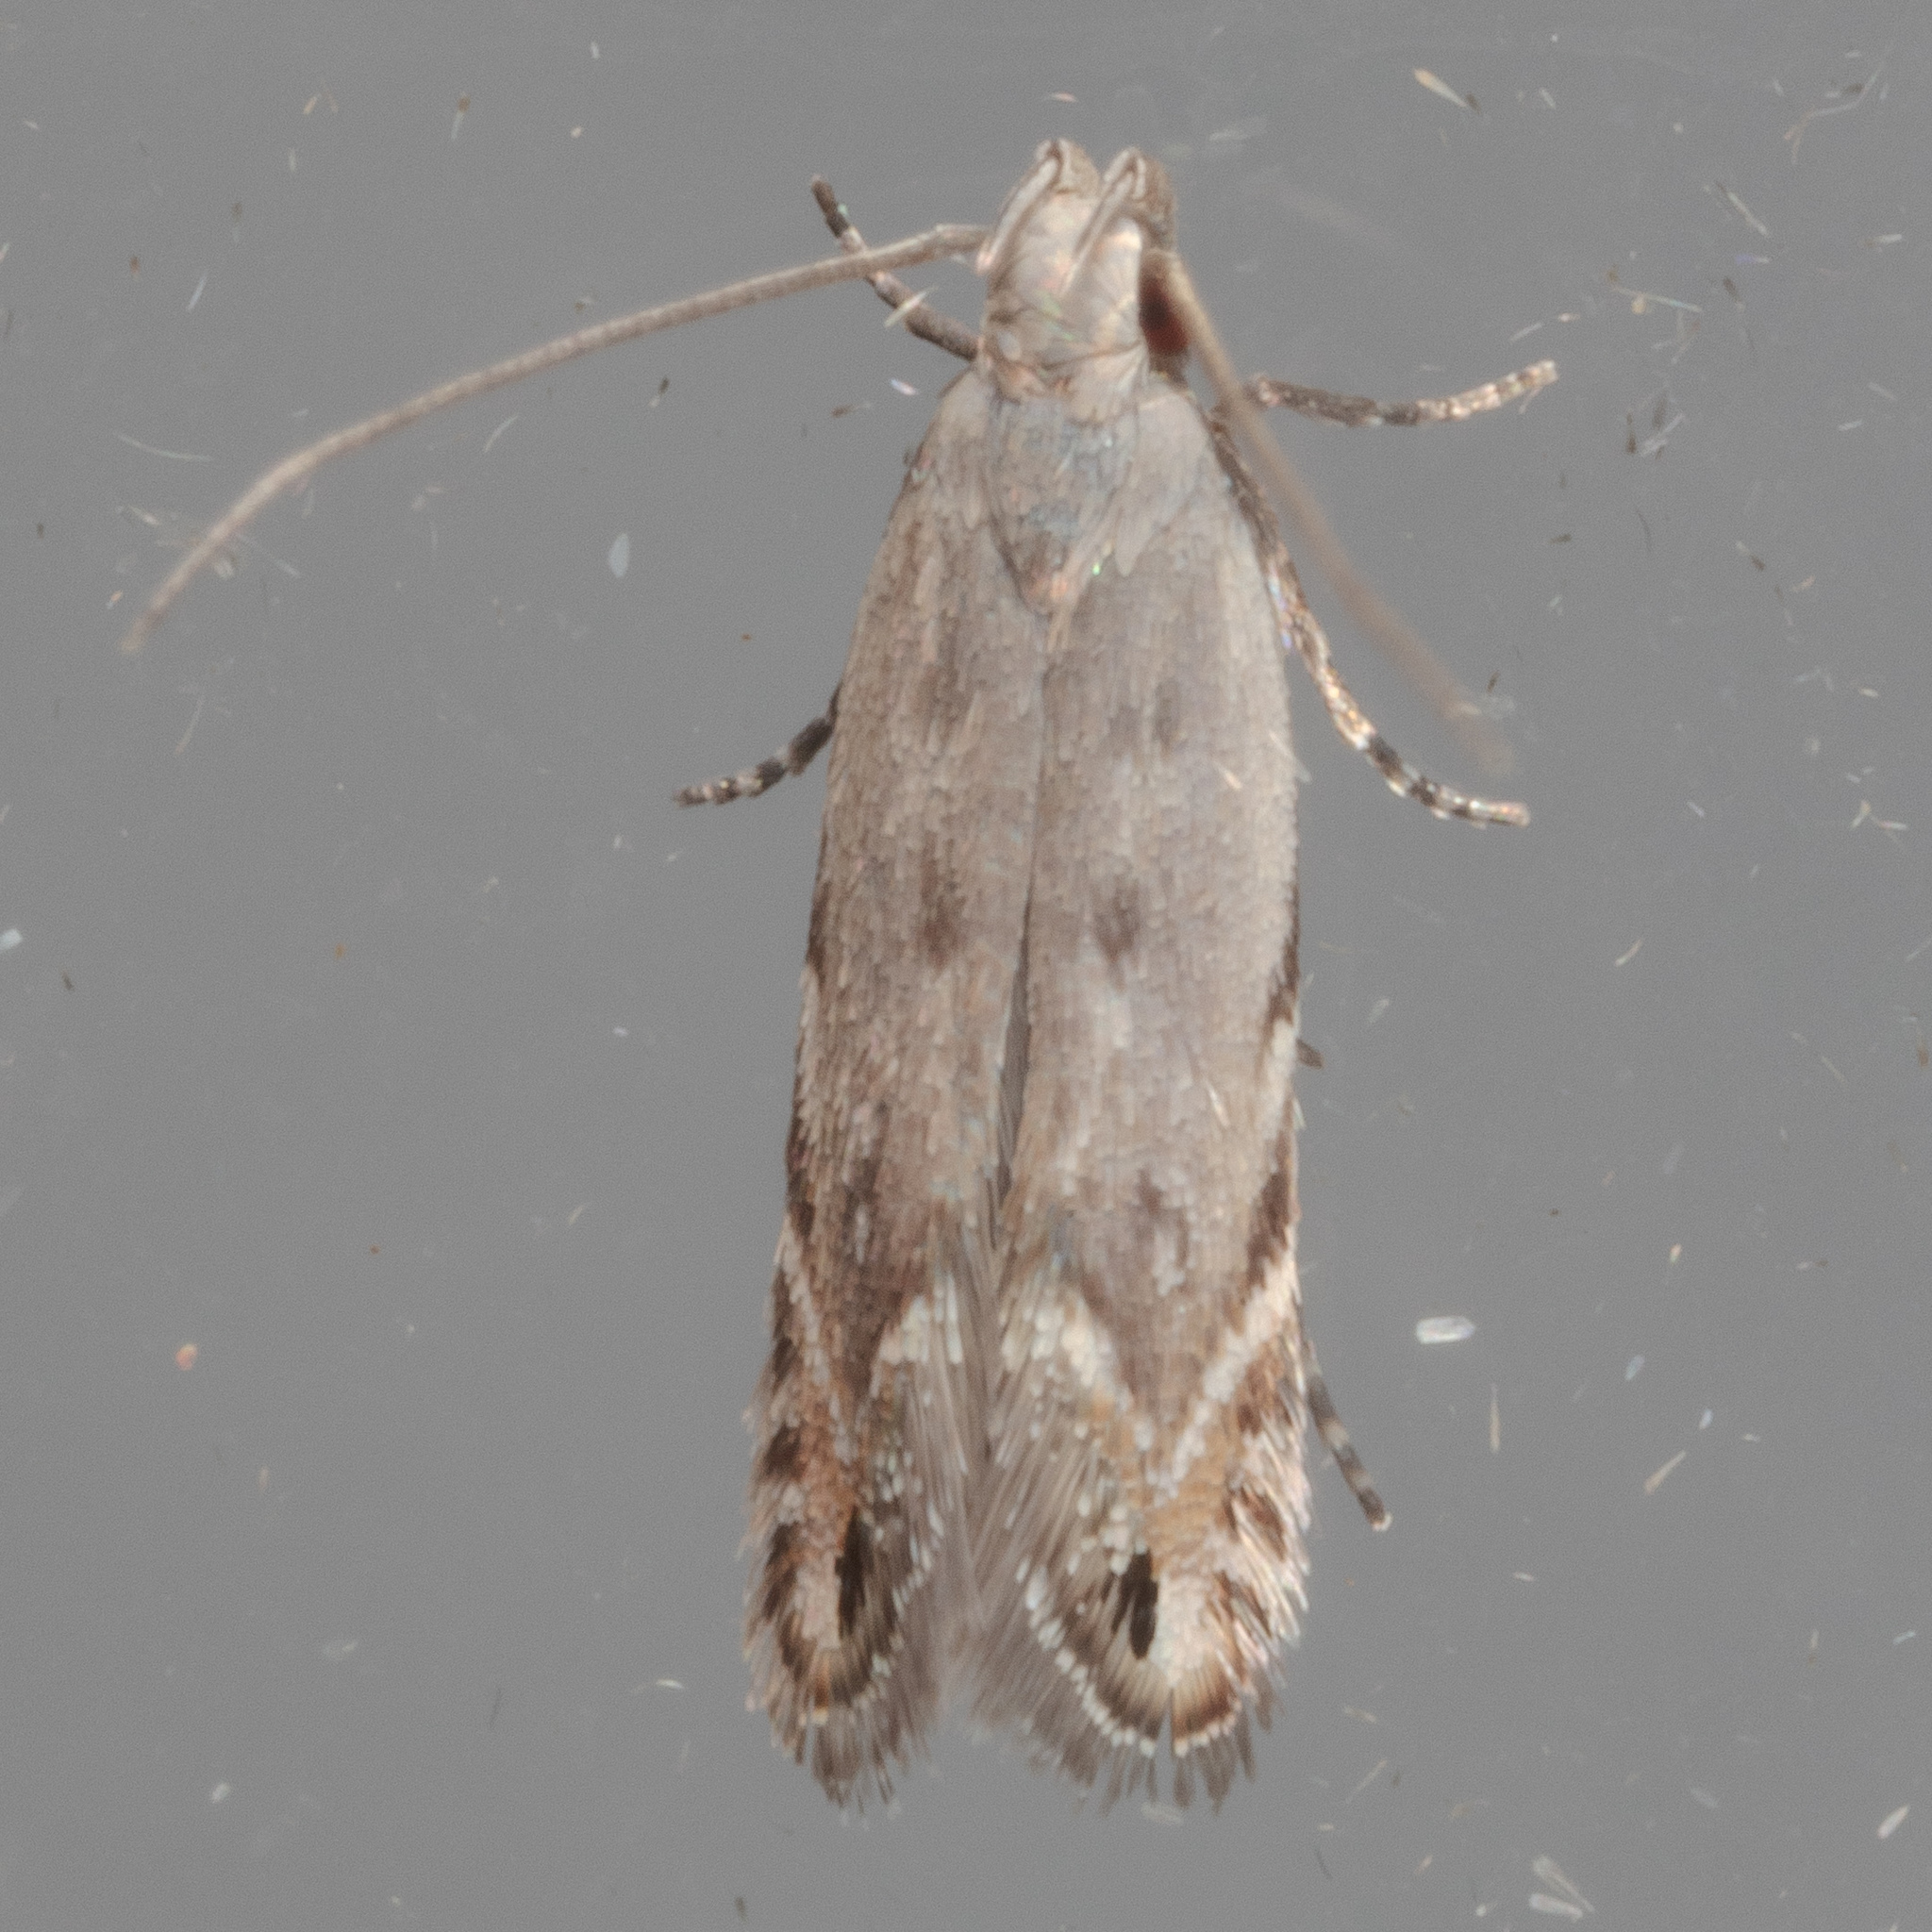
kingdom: Animalia
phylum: Arthropoda
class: Insecta
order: Lepidoptera
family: Gelechiidae
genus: Battaristis
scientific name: Battaristis concinnusella
